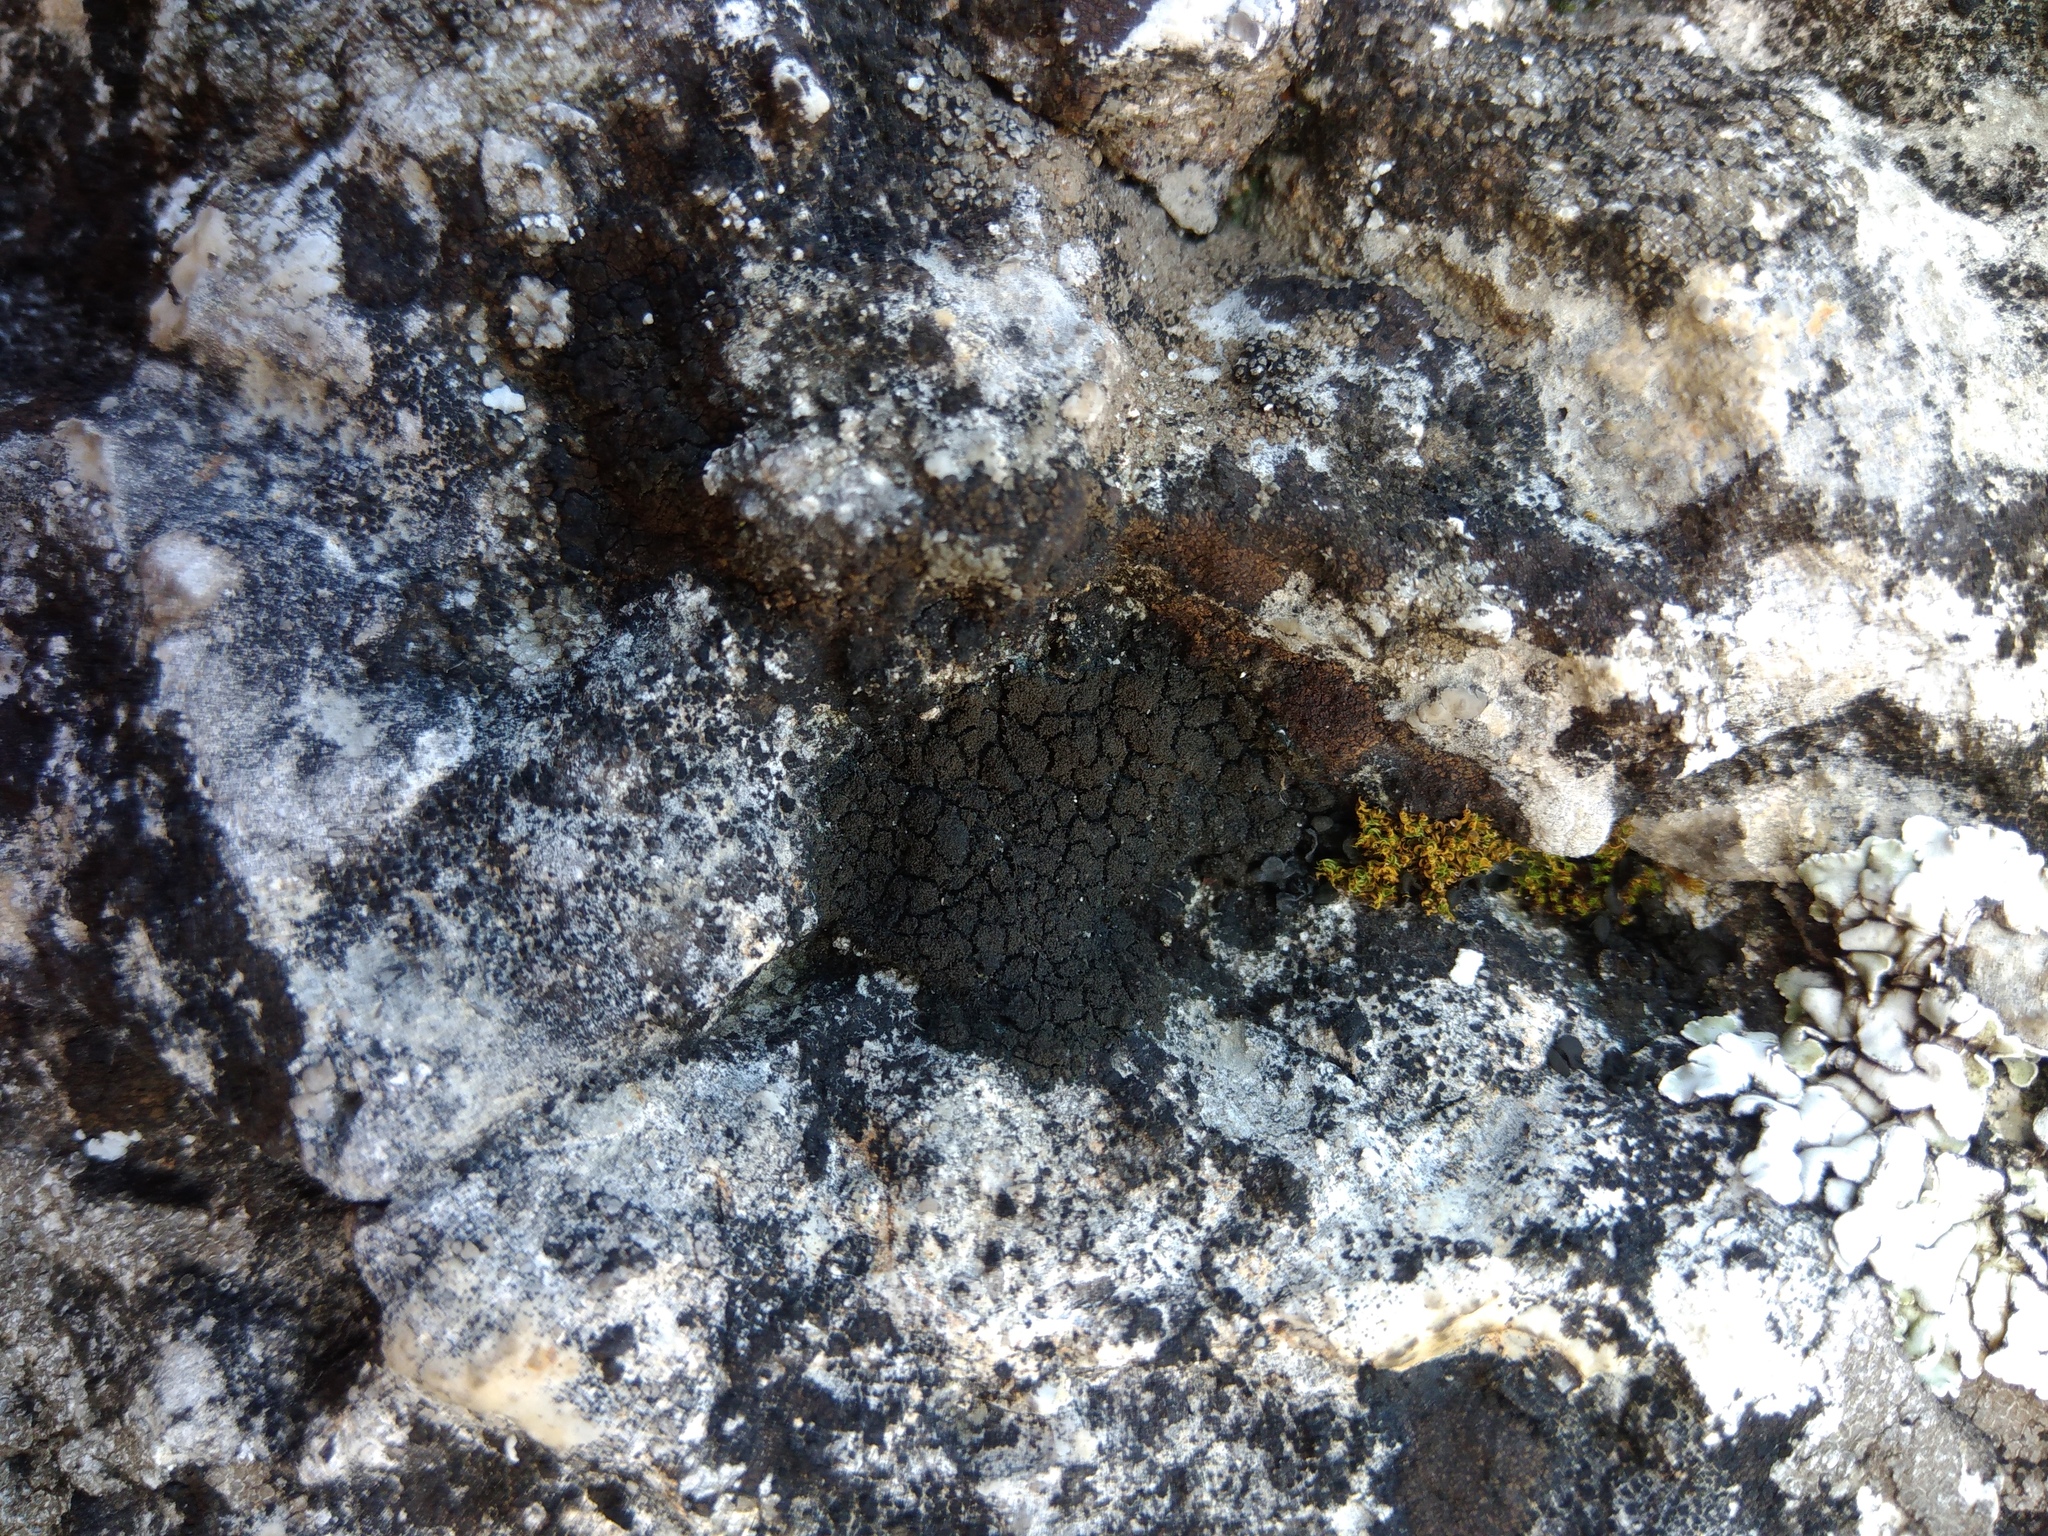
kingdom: Fungi
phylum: Ascomycota
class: Lecanoromycetes
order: Peltigerales
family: Placynthiaceae
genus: Placynthium
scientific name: Placynthium nigrum
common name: Blackthread lichen
